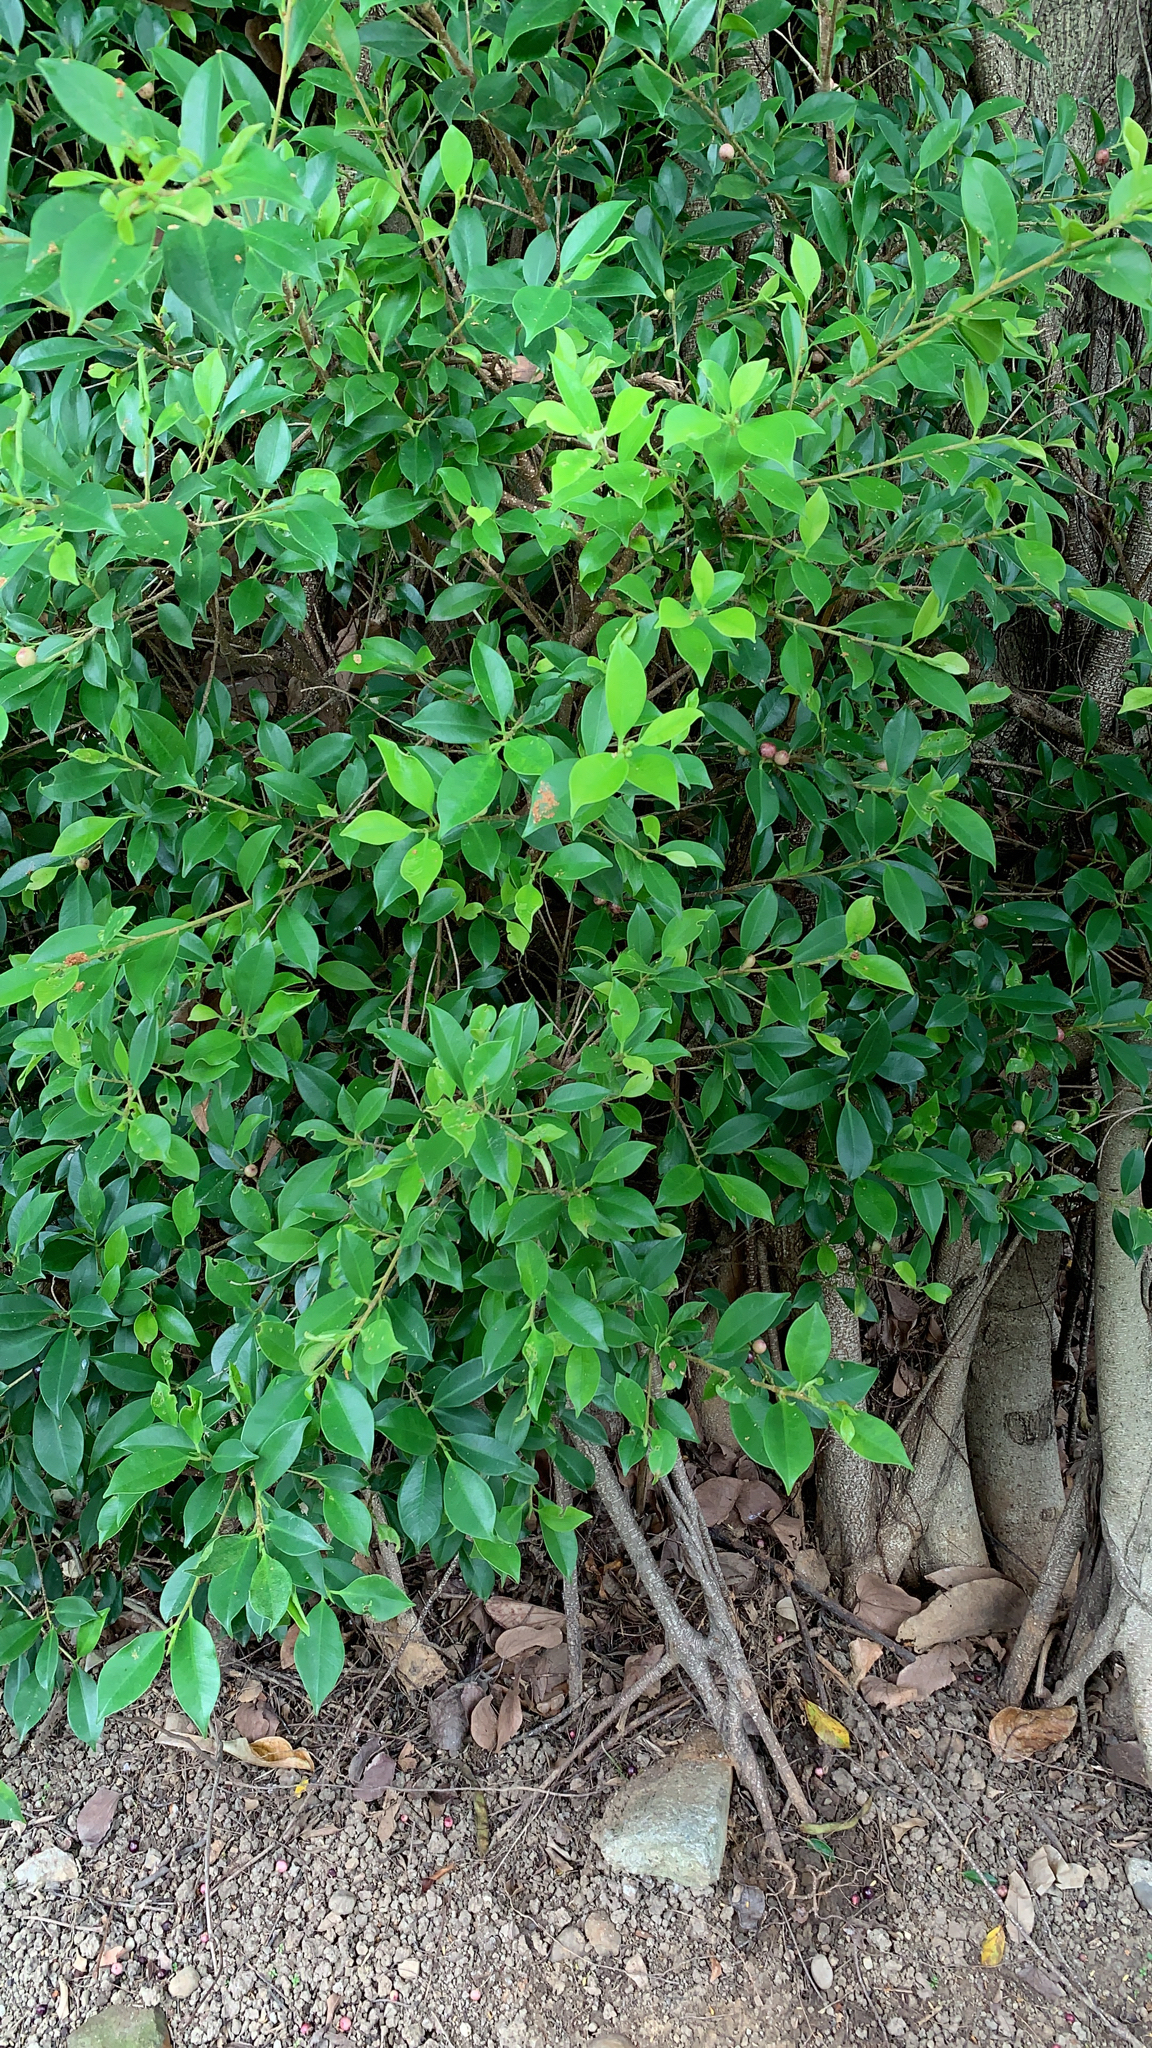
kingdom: Plantae
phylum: Tracheophyta
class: Magnoliopsida
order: Rosales
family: Moraceae
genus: Ficus
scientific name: Ficus microcarpa
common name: Chinese banyan
